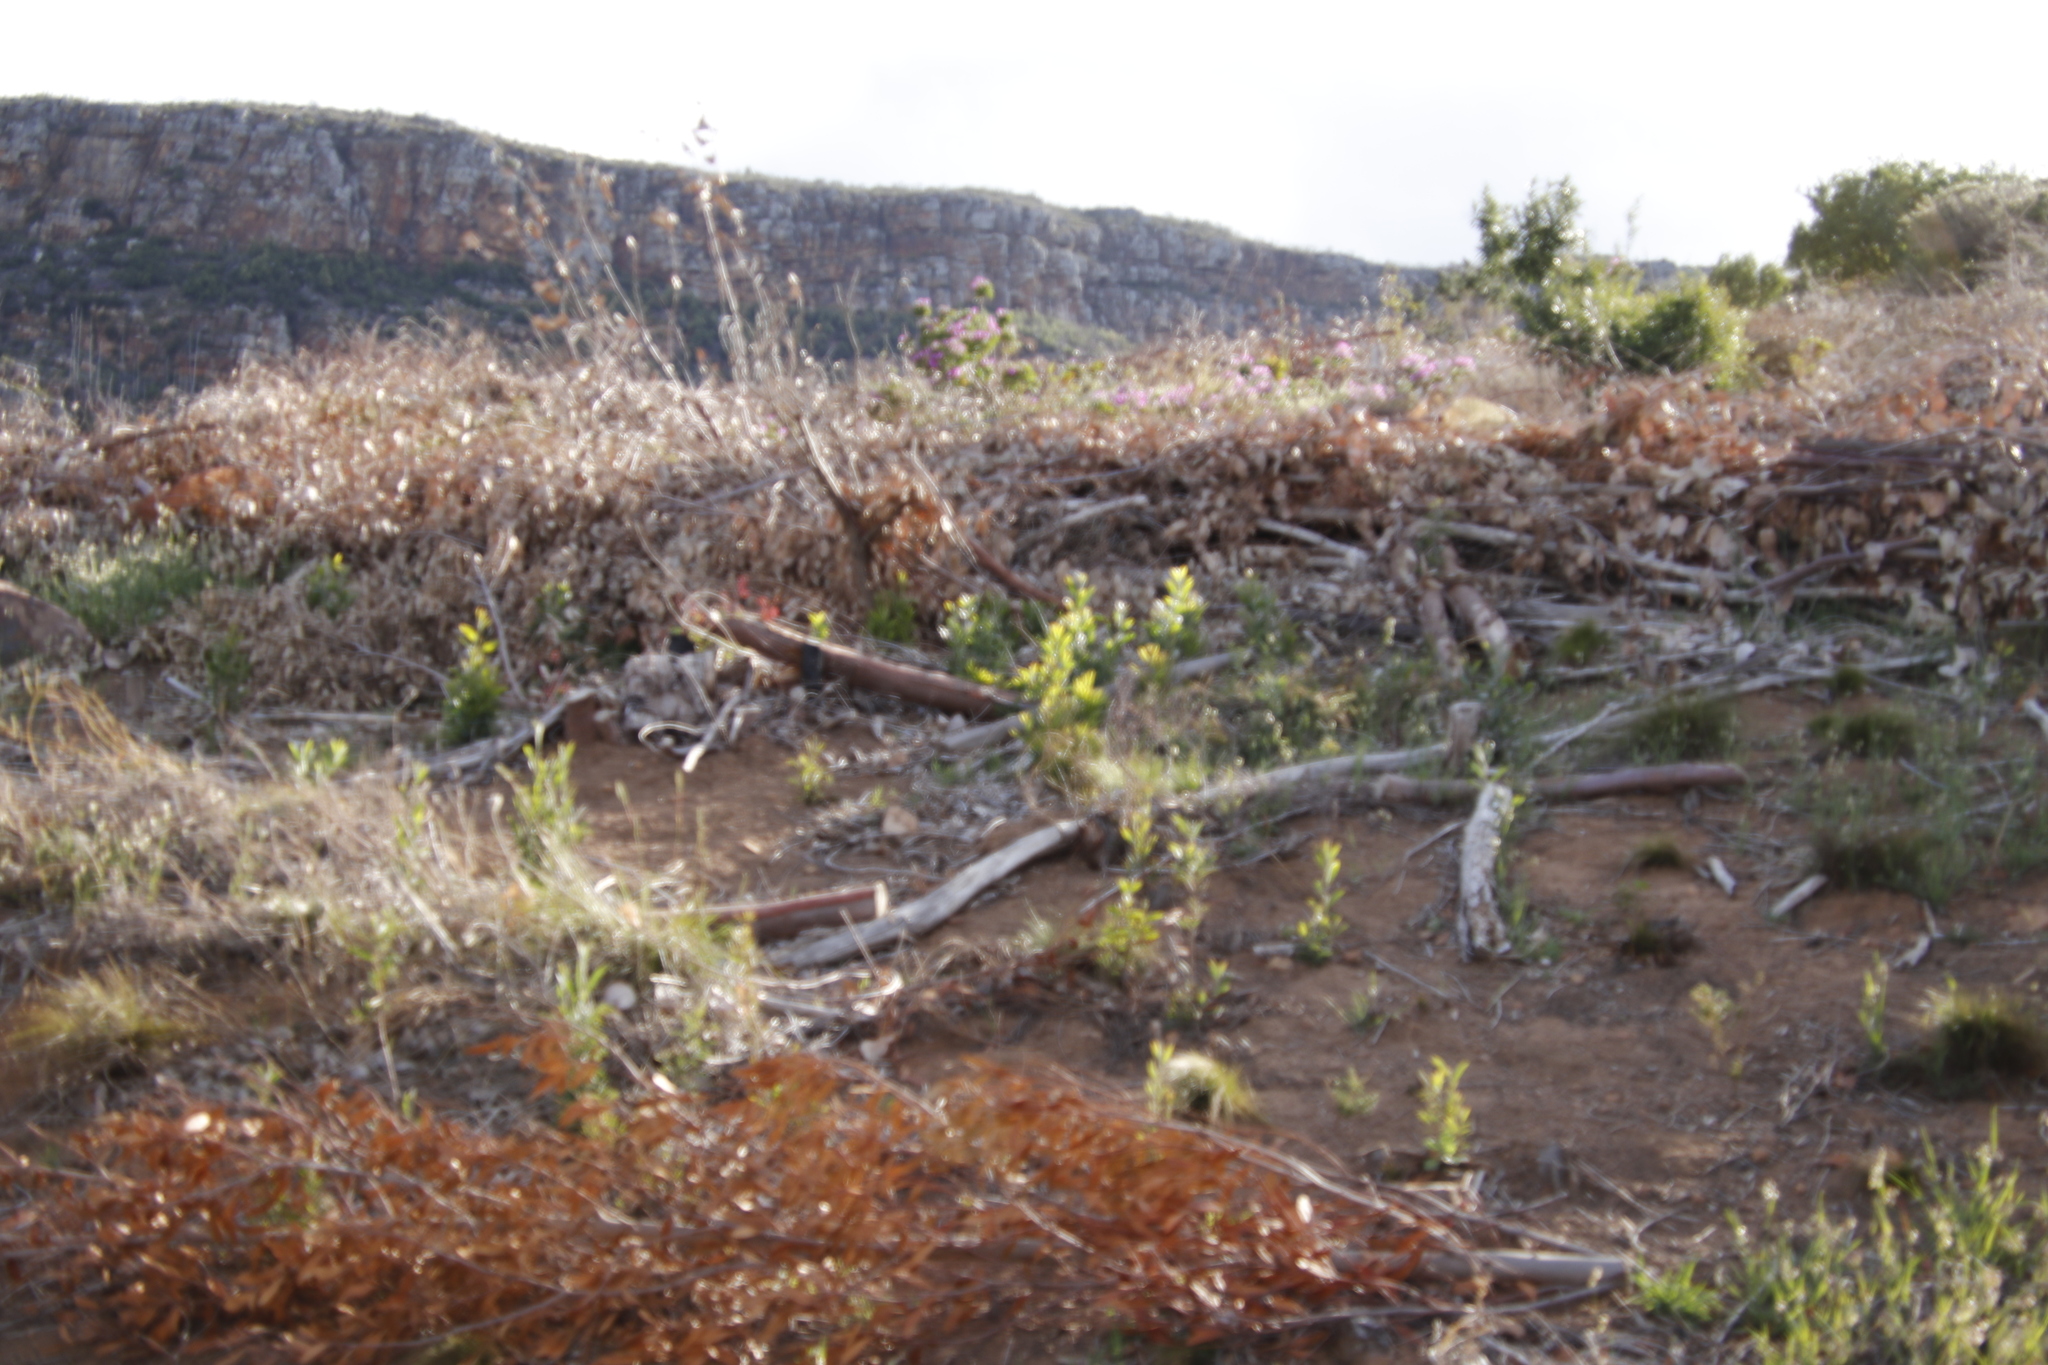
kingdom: Plantae
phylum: Tracheophyta
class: Magnoliopsida
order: Fabales
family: Fabaceae
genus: Acacia
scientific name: Acacia melanoxylon
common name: Blackwood
